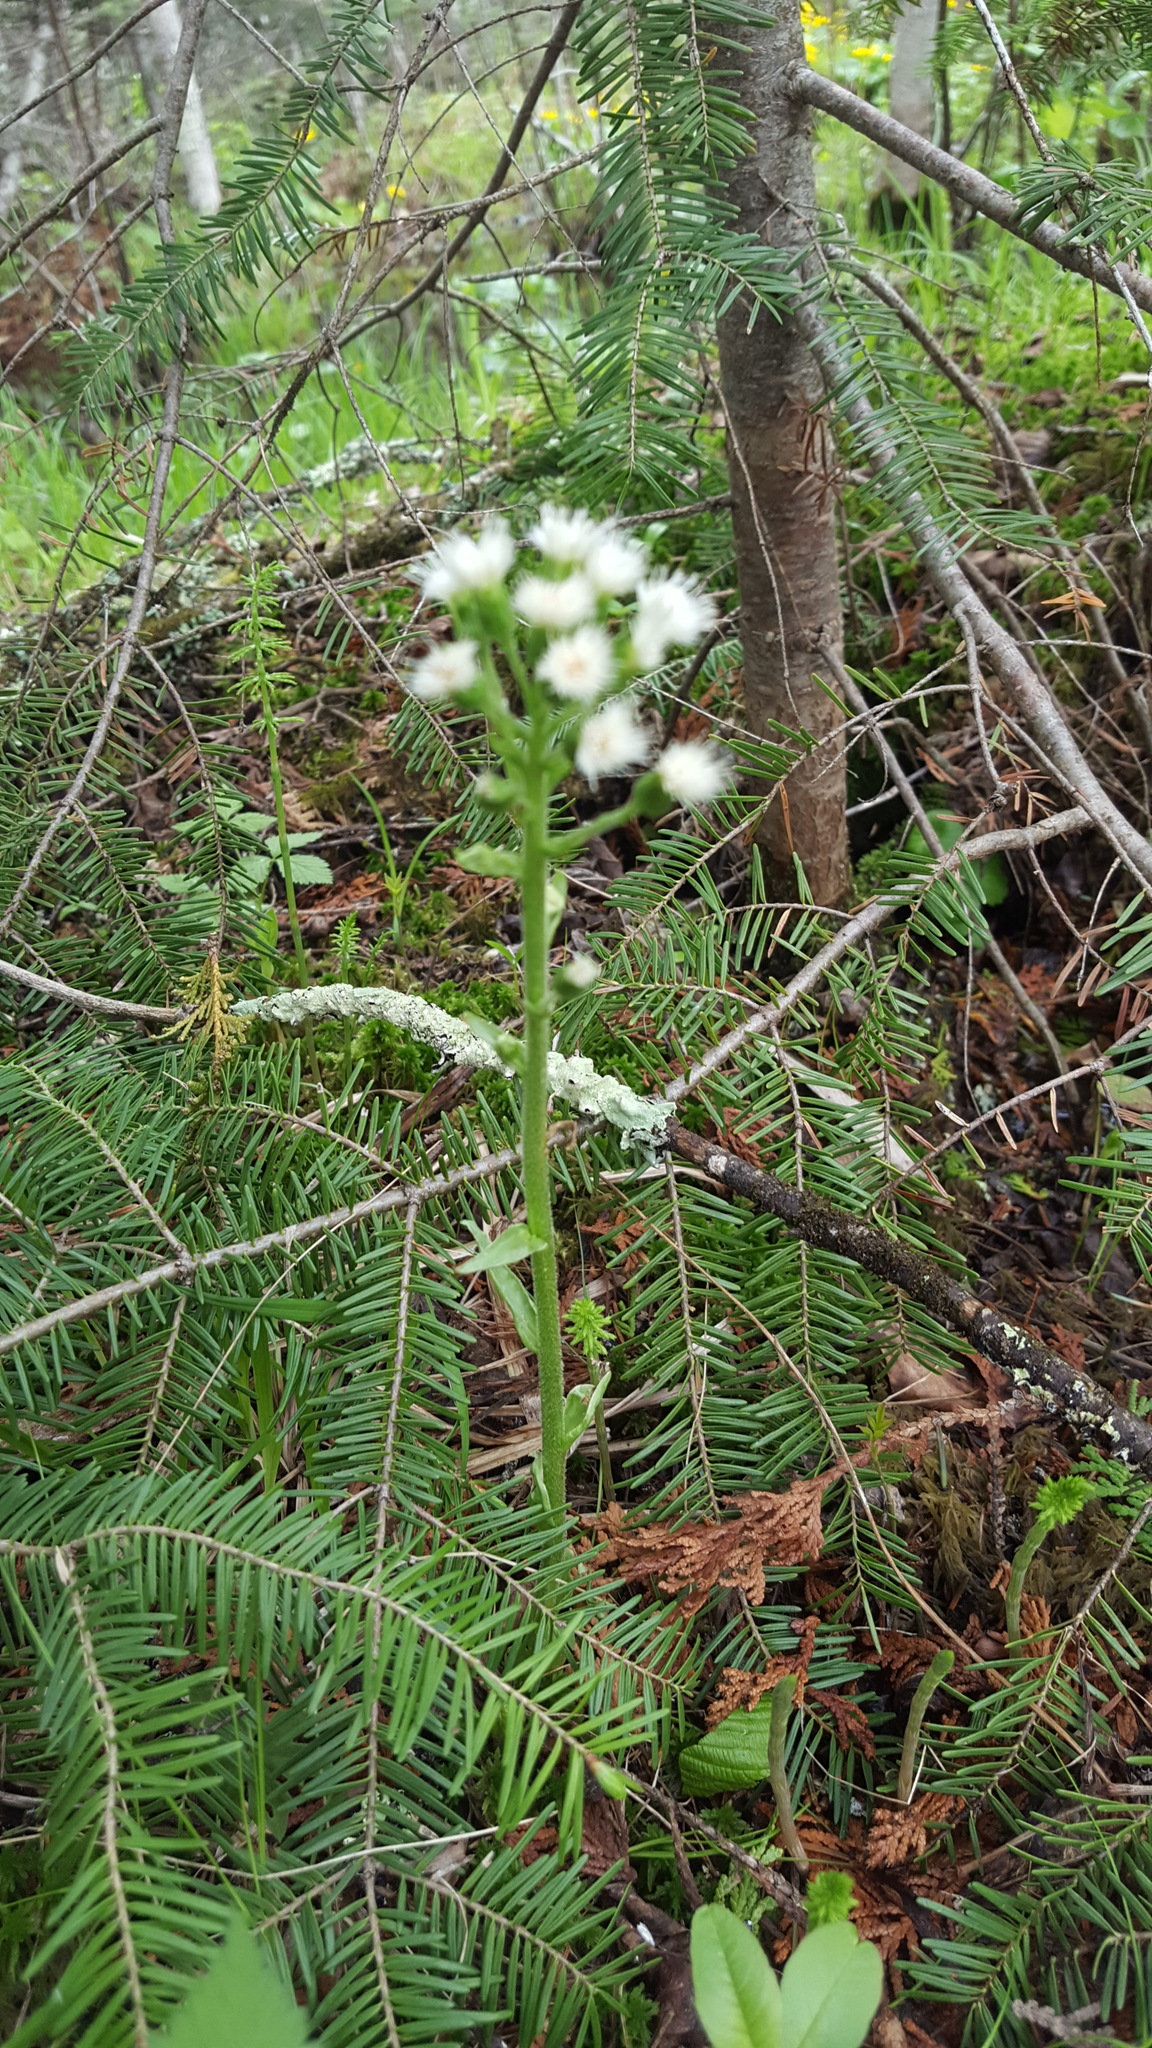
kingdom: Plantae
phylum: Tracheophyta
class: Magnoliopsida
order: Asterales
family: Asteraceae
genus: Petasites
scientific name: Petasites frigidus
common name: Arctic butterbur
